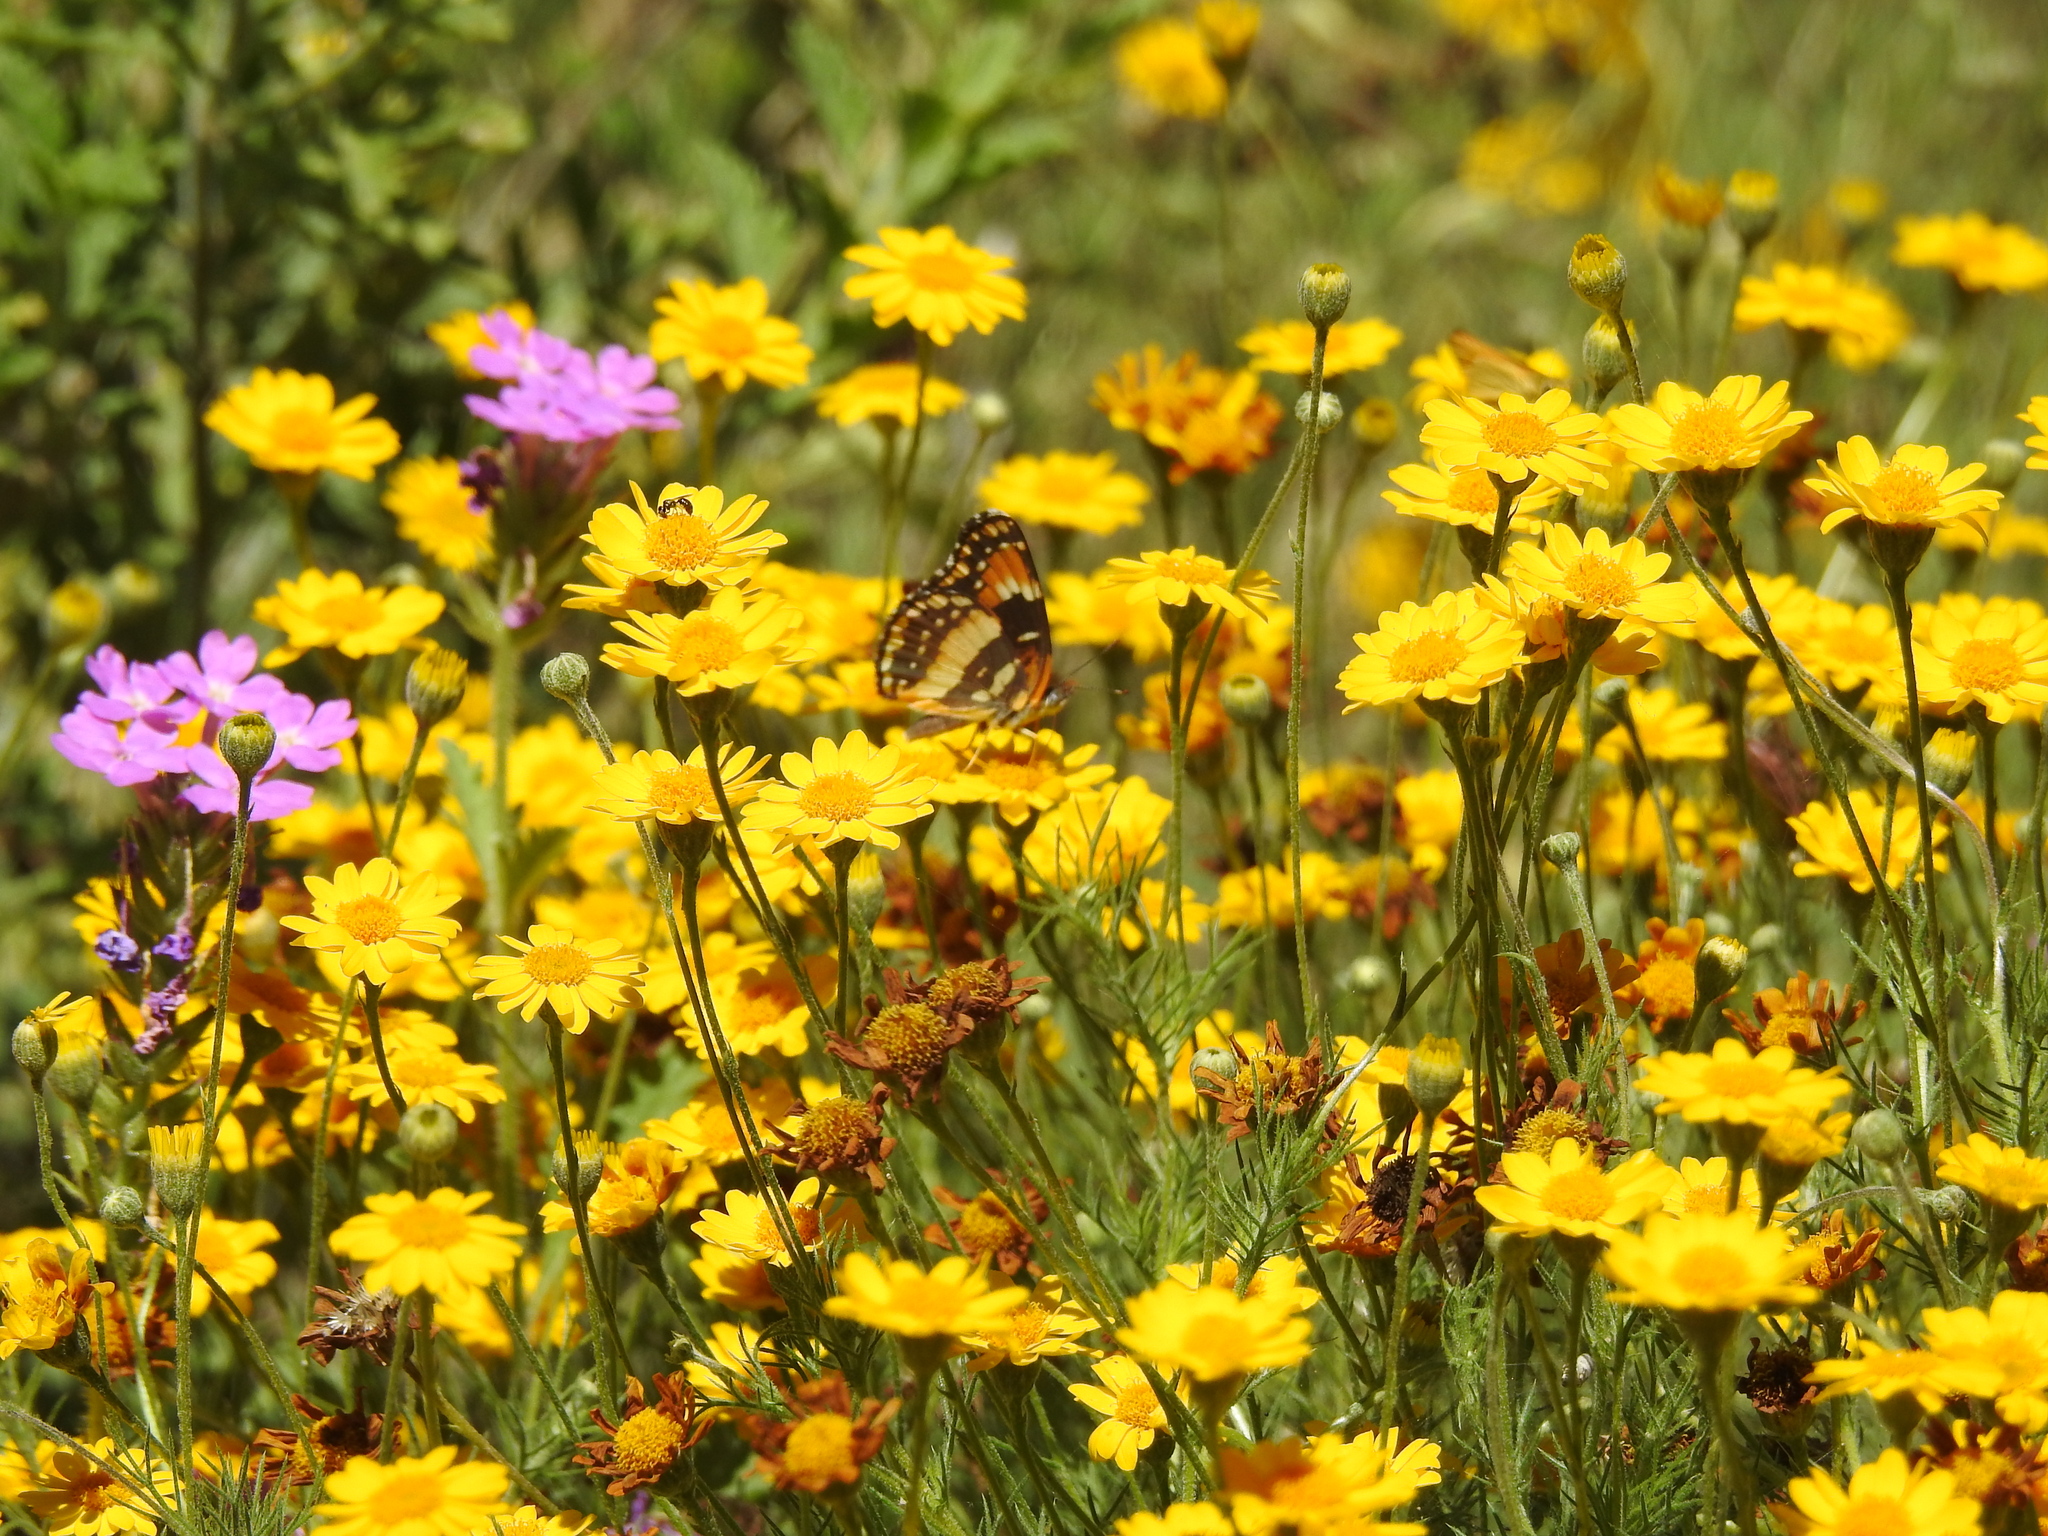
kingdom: Animalia
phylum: Arthropoda
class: Insecta
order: Lepidoptera
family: Nymphalidae
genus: Chlosyne
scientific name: Chlosyne californica
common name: California patch
